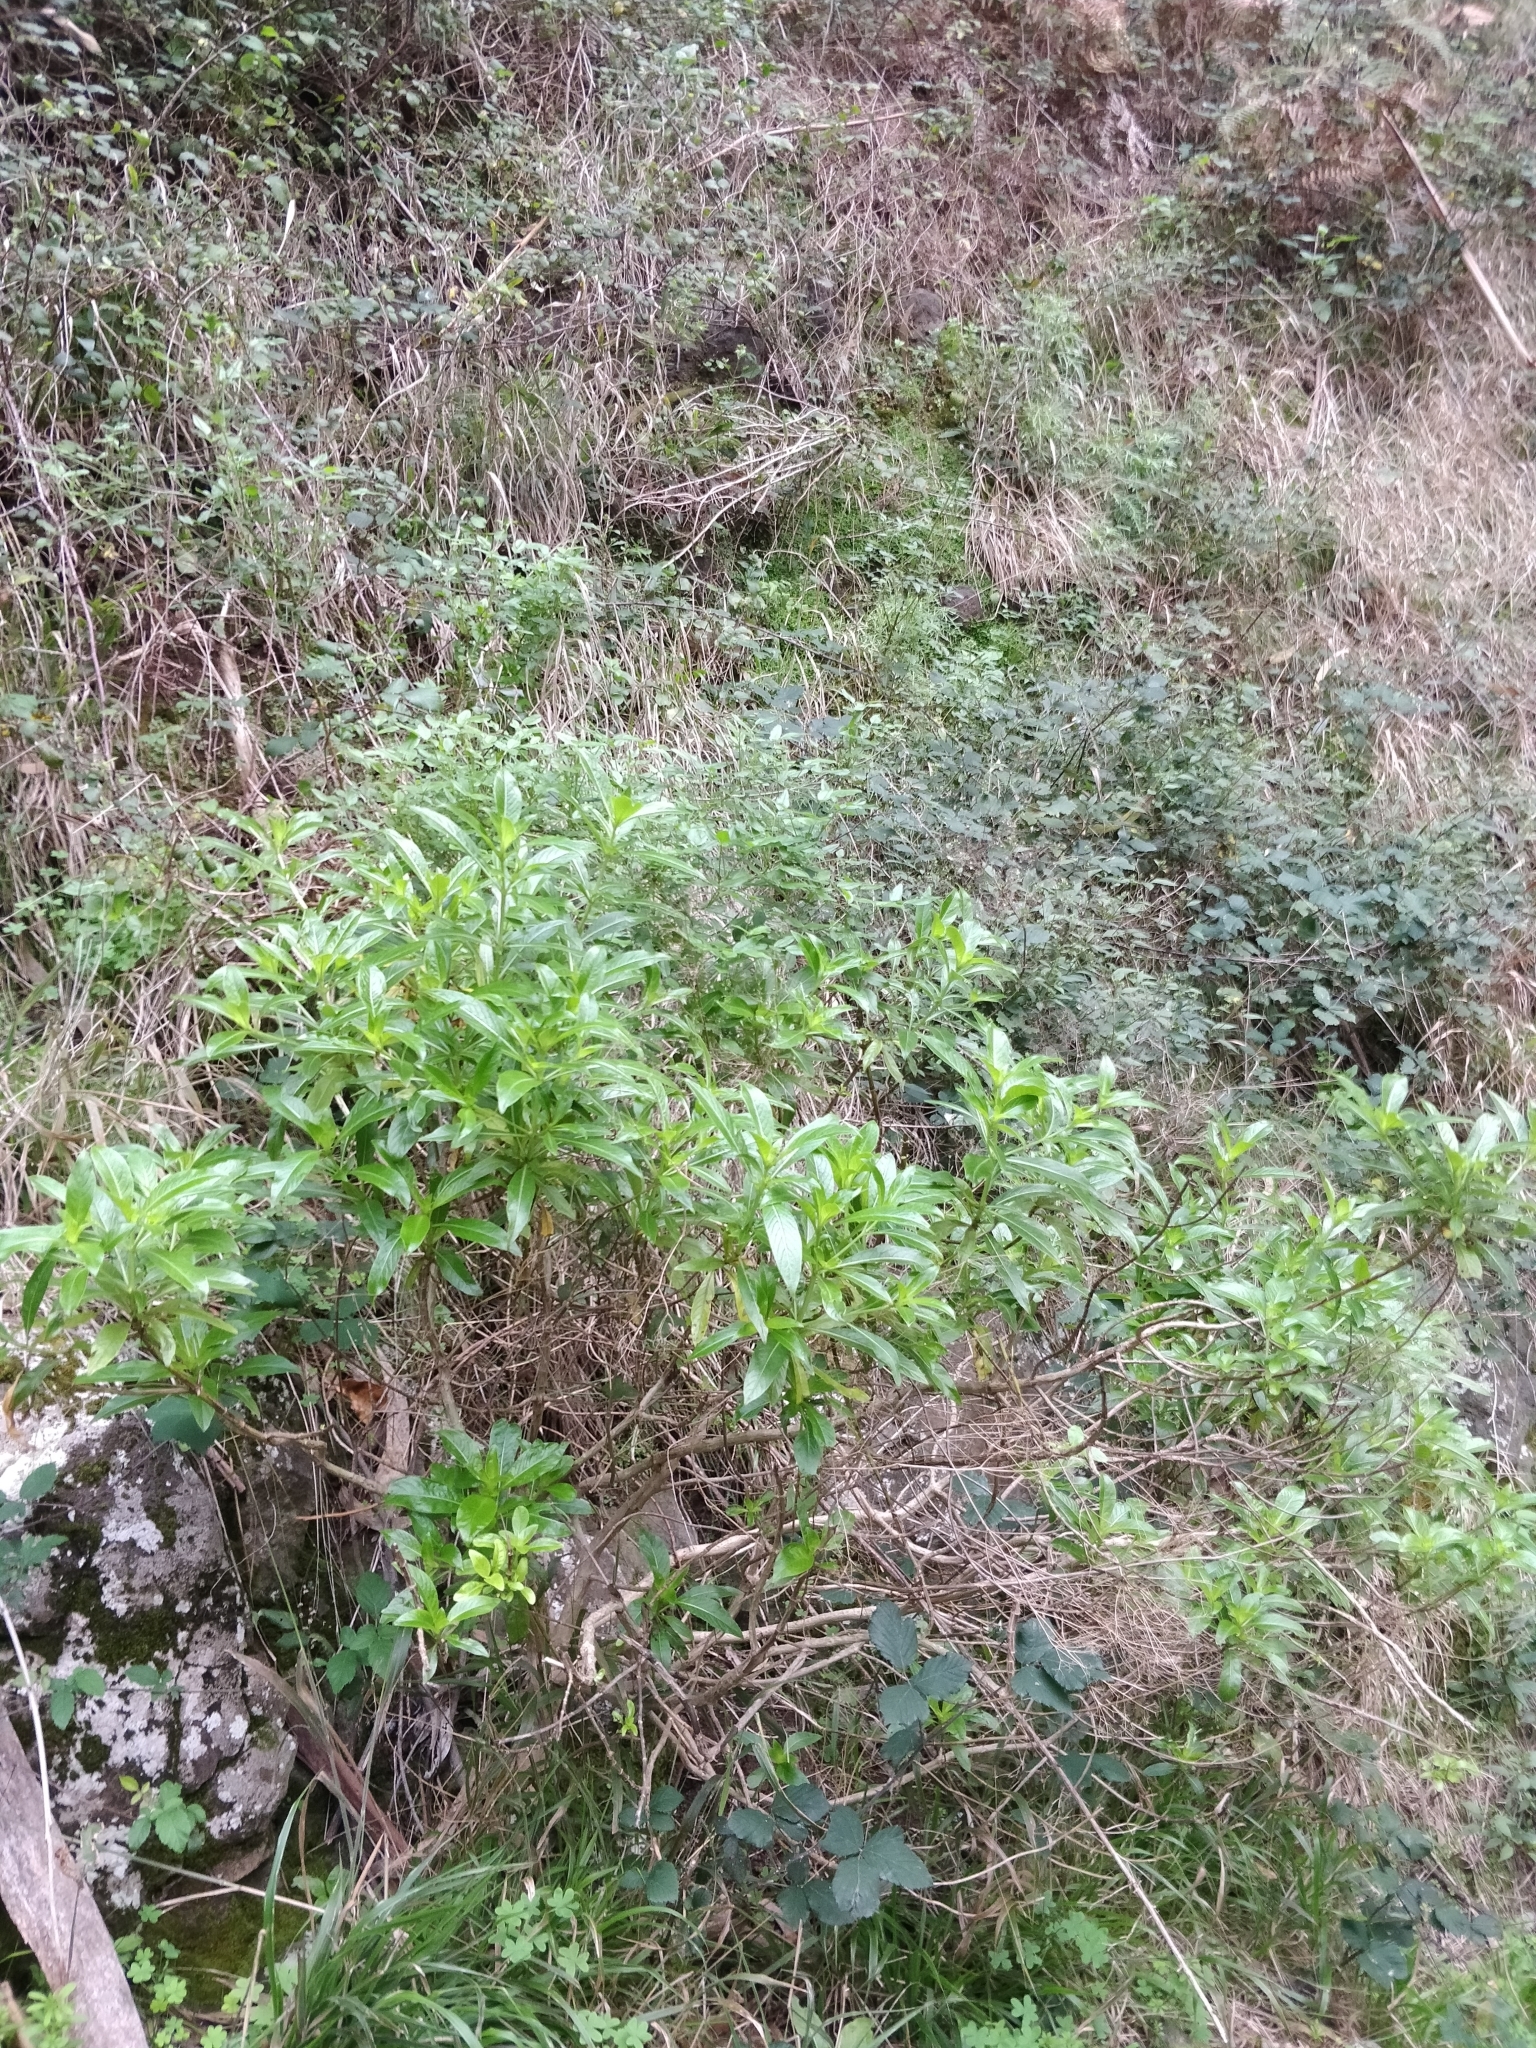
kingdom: Plantae
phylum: Tracheophyta
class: Magnoliopsida
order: Gentianales
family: Rubiaceae
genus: Phyllis
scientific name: Phyllis nobla
